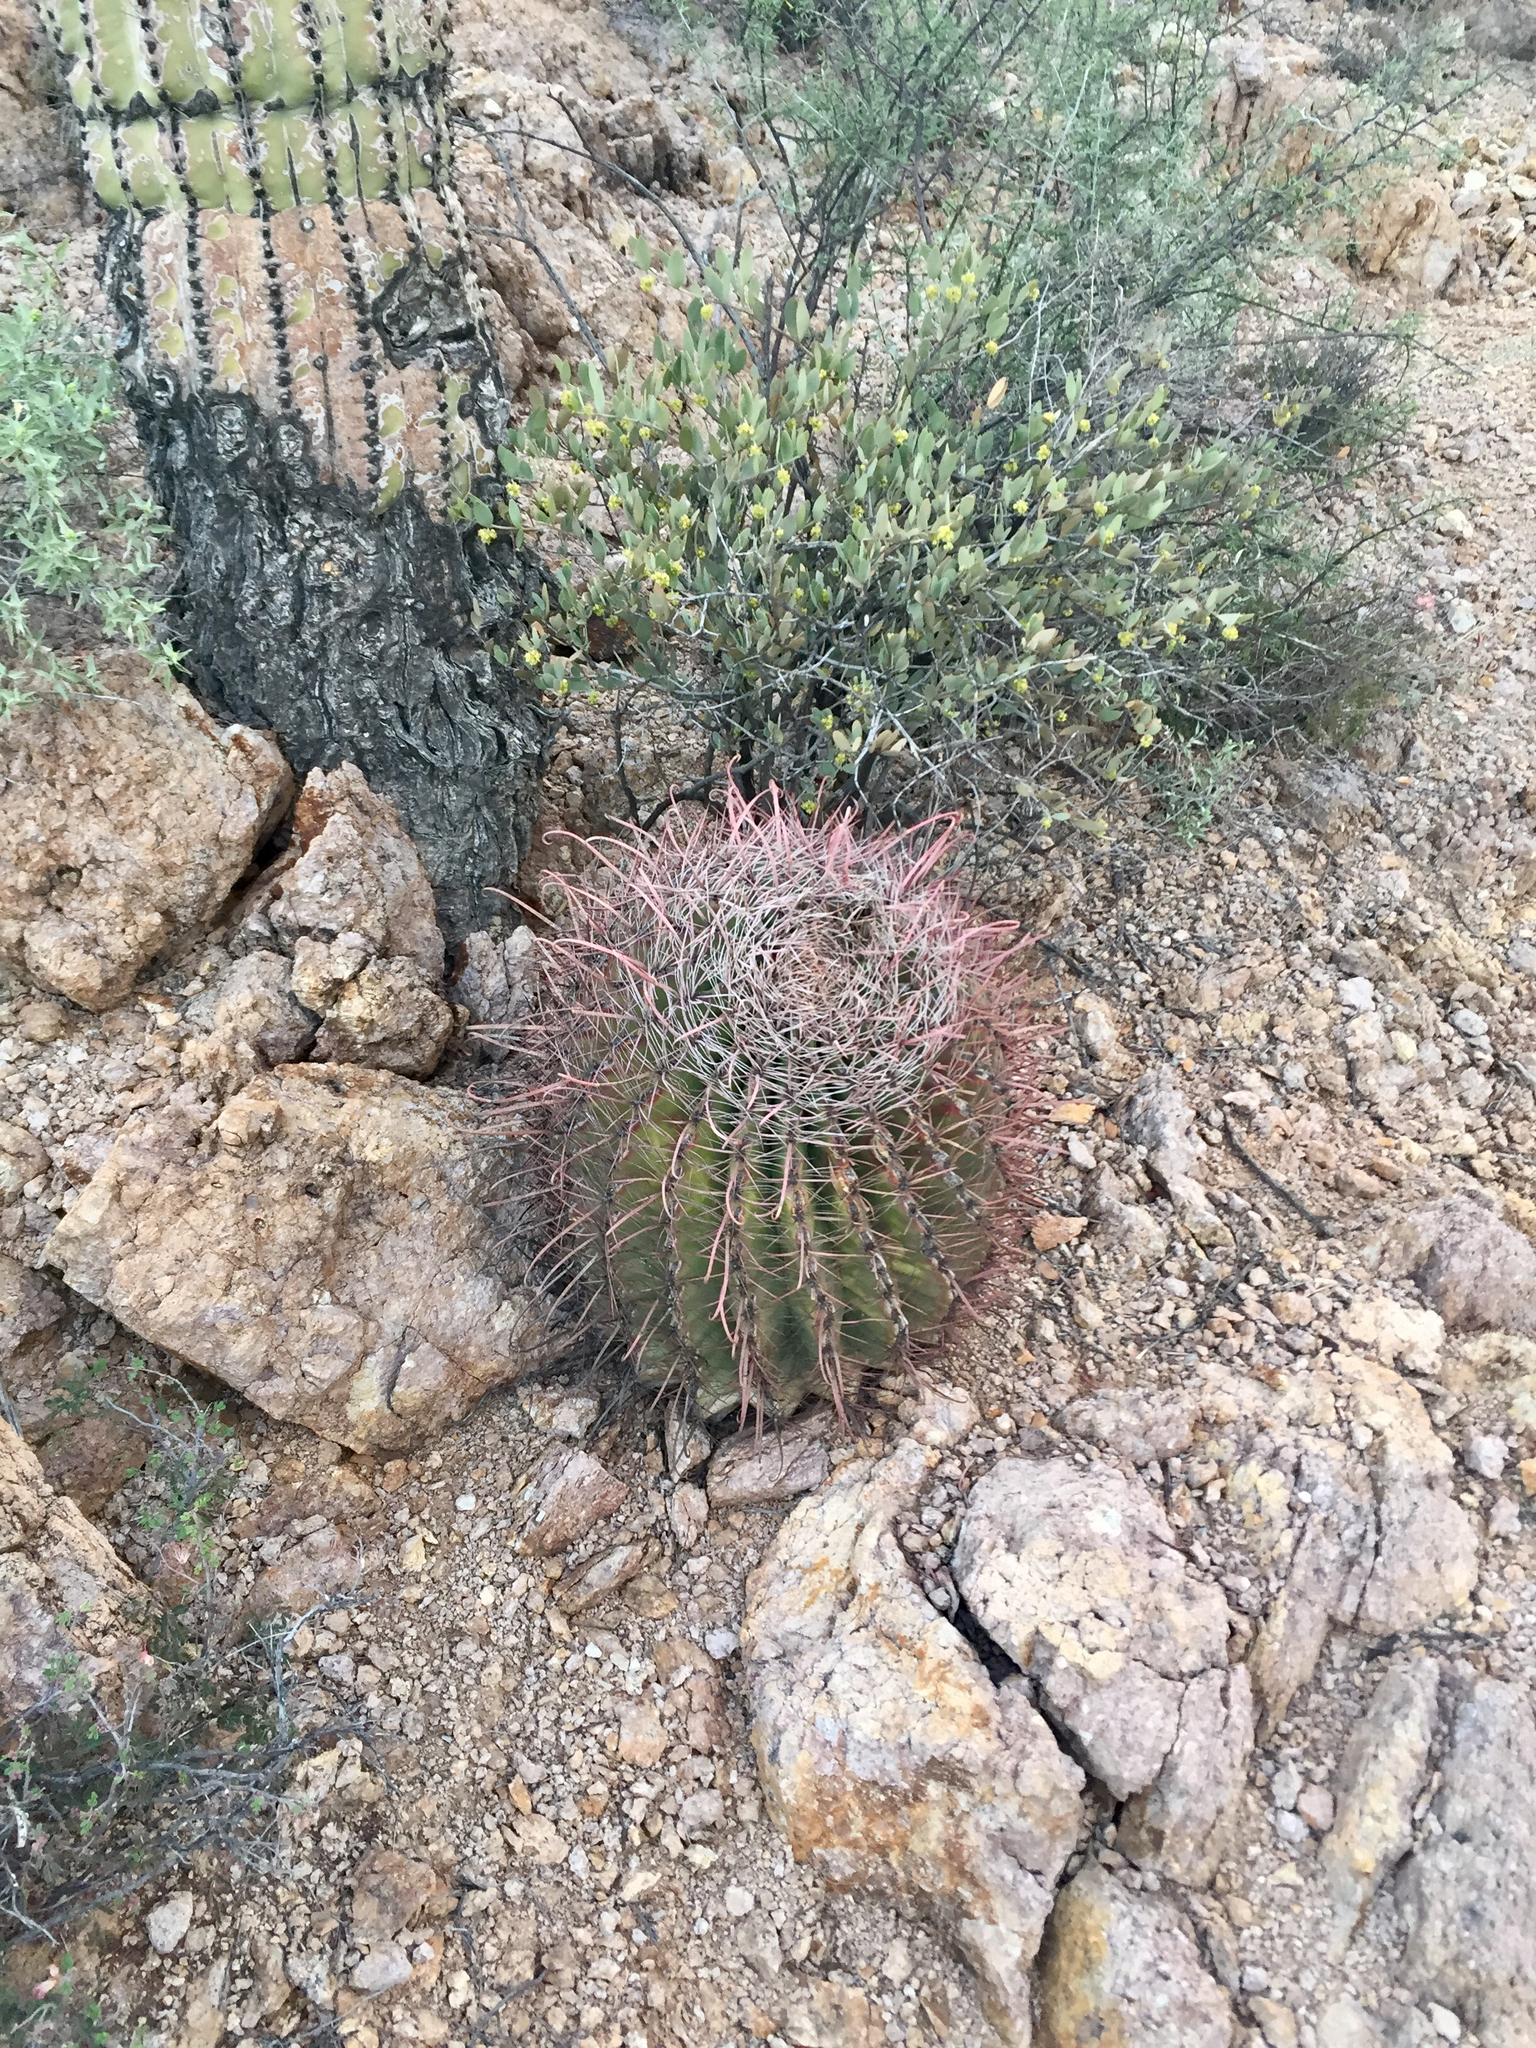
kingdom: Plantae
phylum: Tracheophyta
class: Magnoliopsida
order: Caryophyllales
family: Cactaceae
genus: Ferocactus
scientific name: Ferocactus wislizeni
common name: Candy barrel cactus
